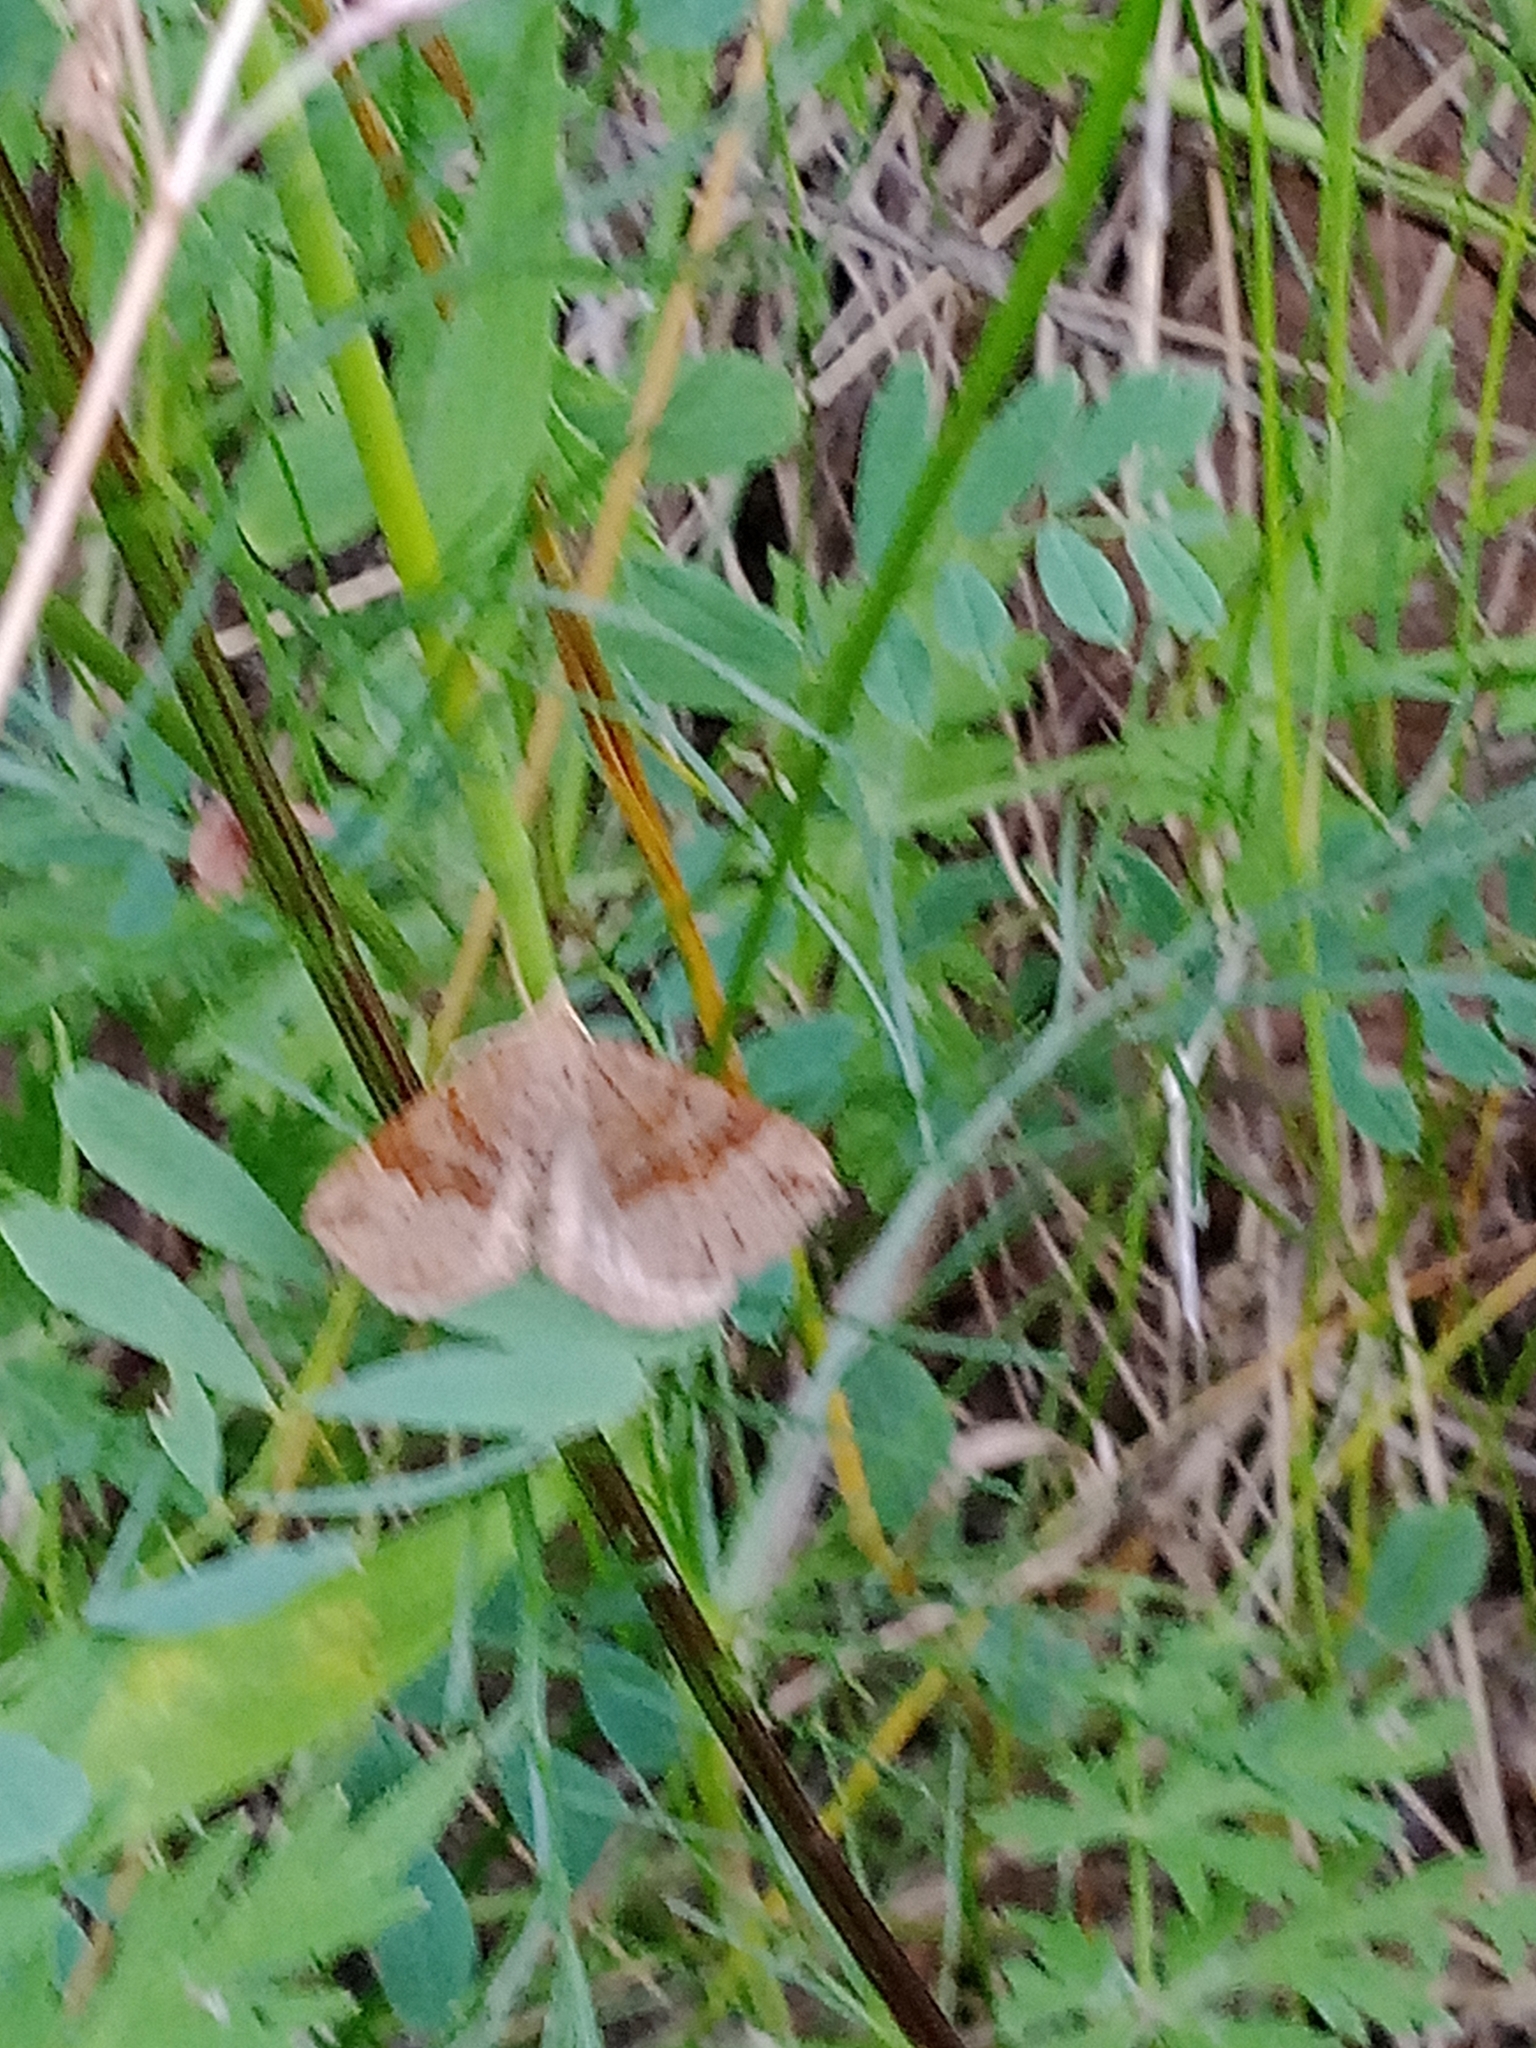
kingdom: Animalia
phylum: Arthropoda
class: Insecta
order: Lepidoptera
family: Geometridae
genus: Scotopteryx
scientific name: Scotopteryx chenopodiata
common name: Shaded broad-bar
